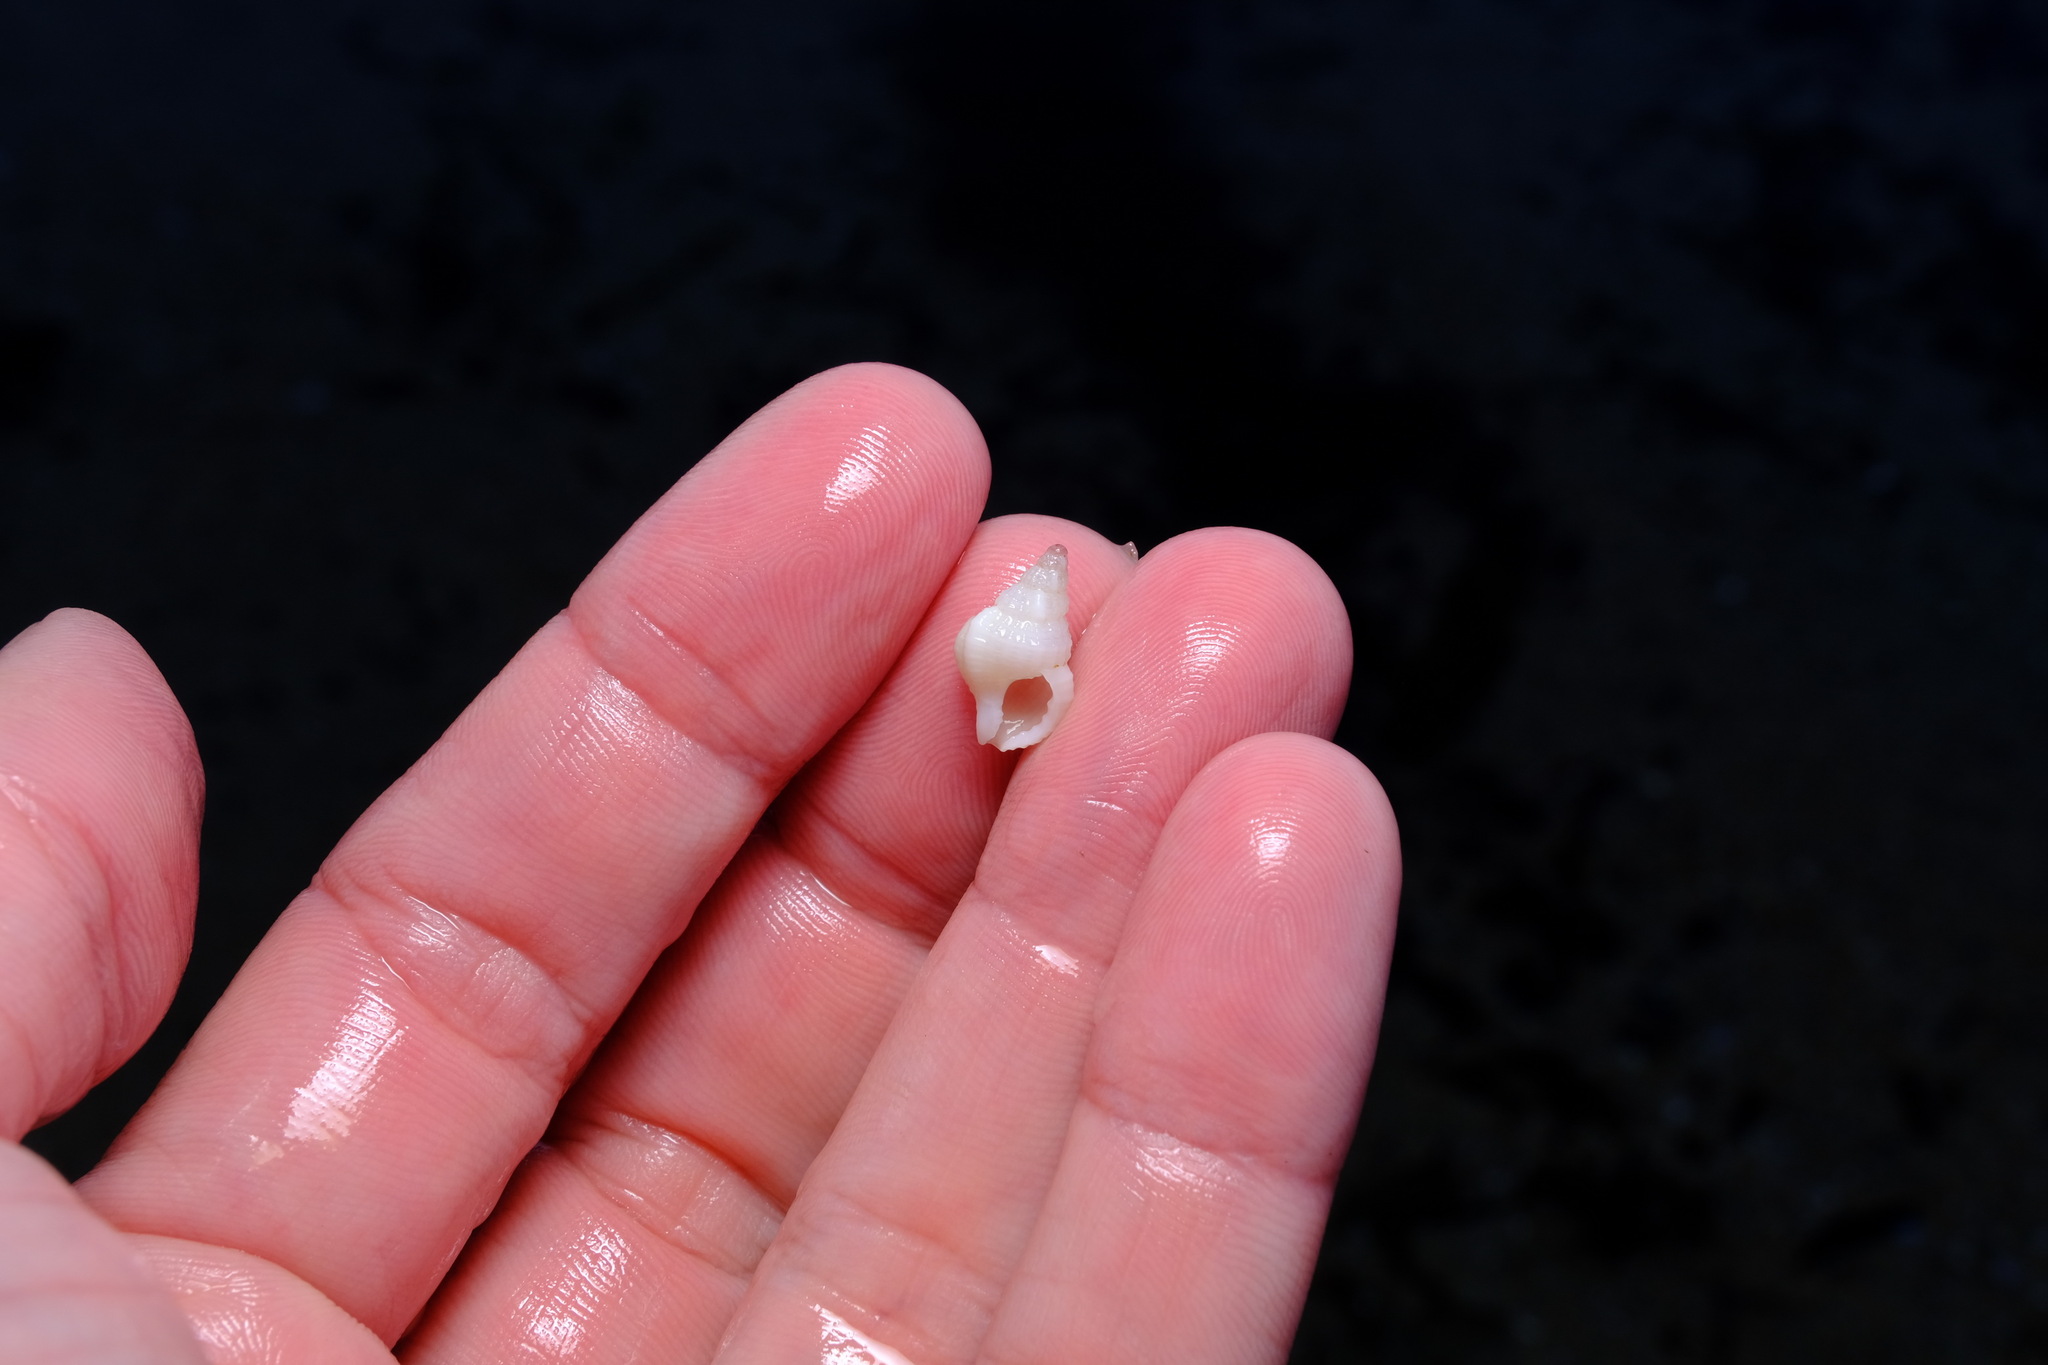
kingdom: Animalia
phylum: Mollusca
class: Gastropoda
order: Littorinimorpha
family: Cymatiidae
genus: Cymatiella
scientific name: Cymatiella eburnea
